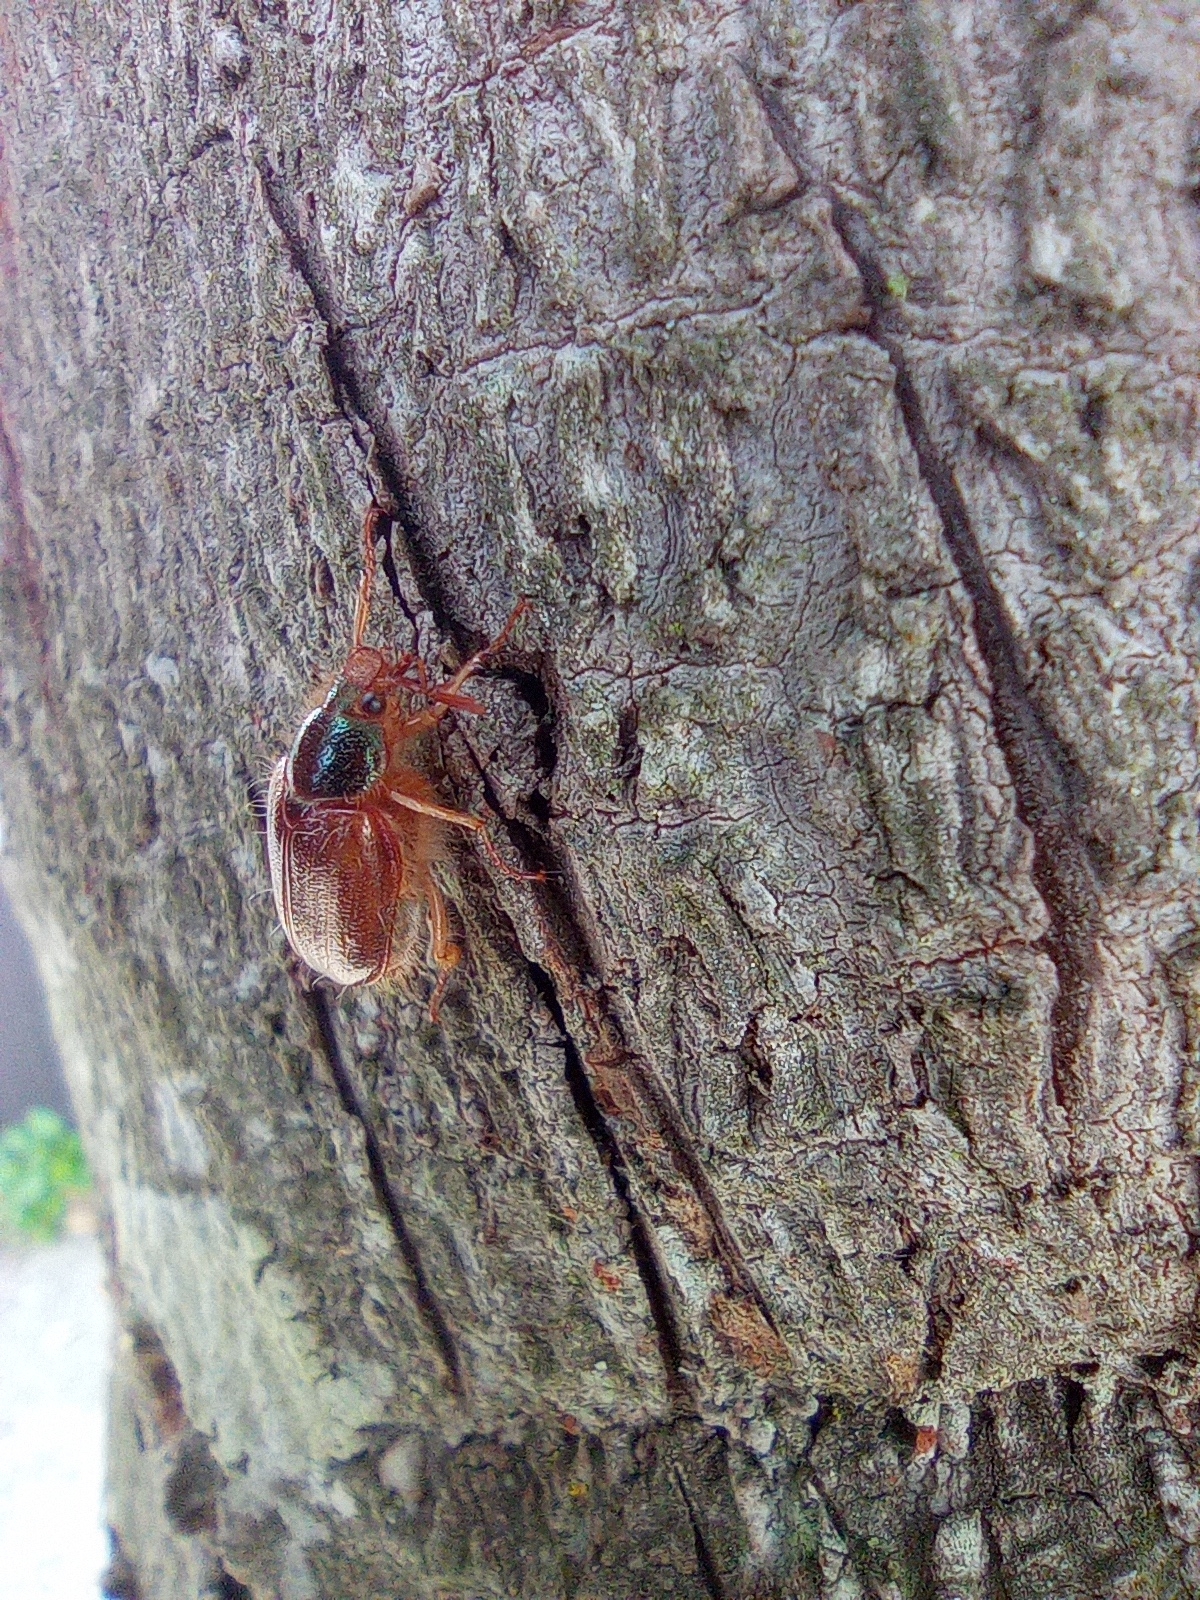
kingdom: Animalia
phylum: Arthropoda
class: Insecta
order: Coleoptera
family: Scarabaeidae
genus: Phytholaema
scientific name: Phytholaema herrmanni
